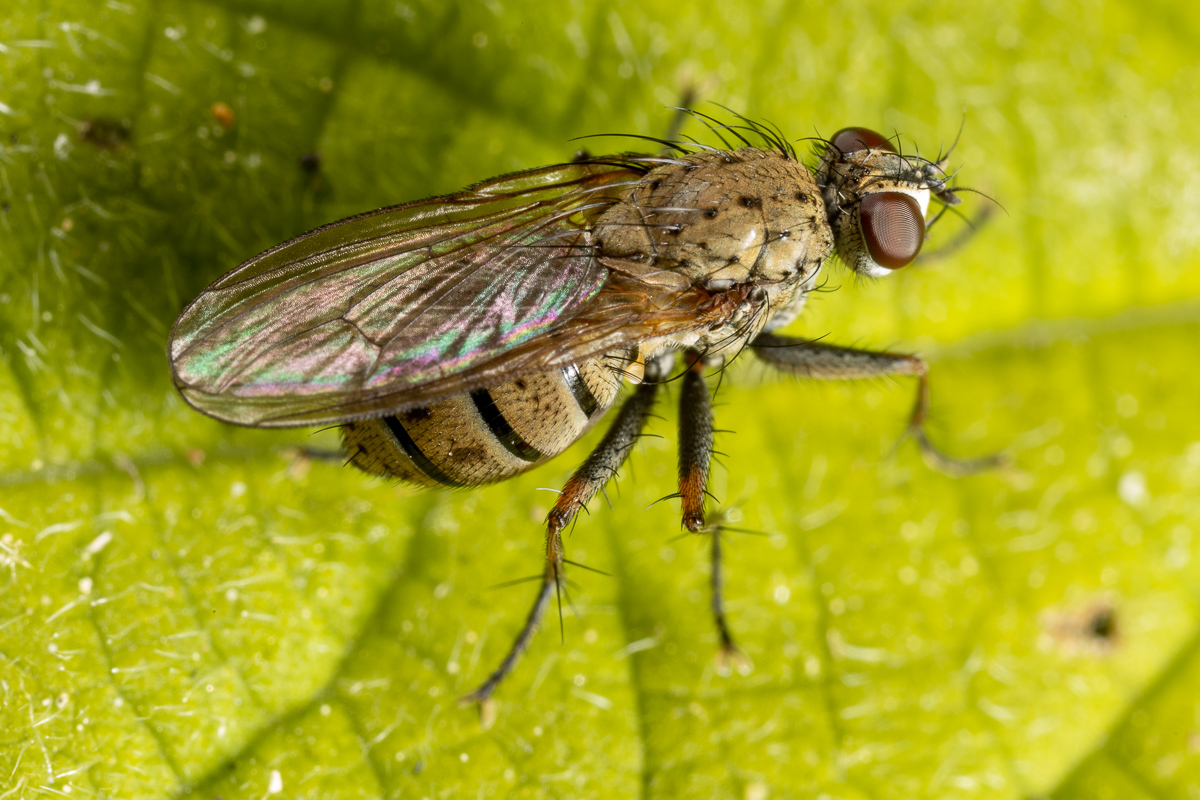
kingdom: Animalia
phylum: Arthropoda
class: Insecta
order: Diptera
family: Muscidae
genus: Coenosia
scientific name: Coenosia tigrina
